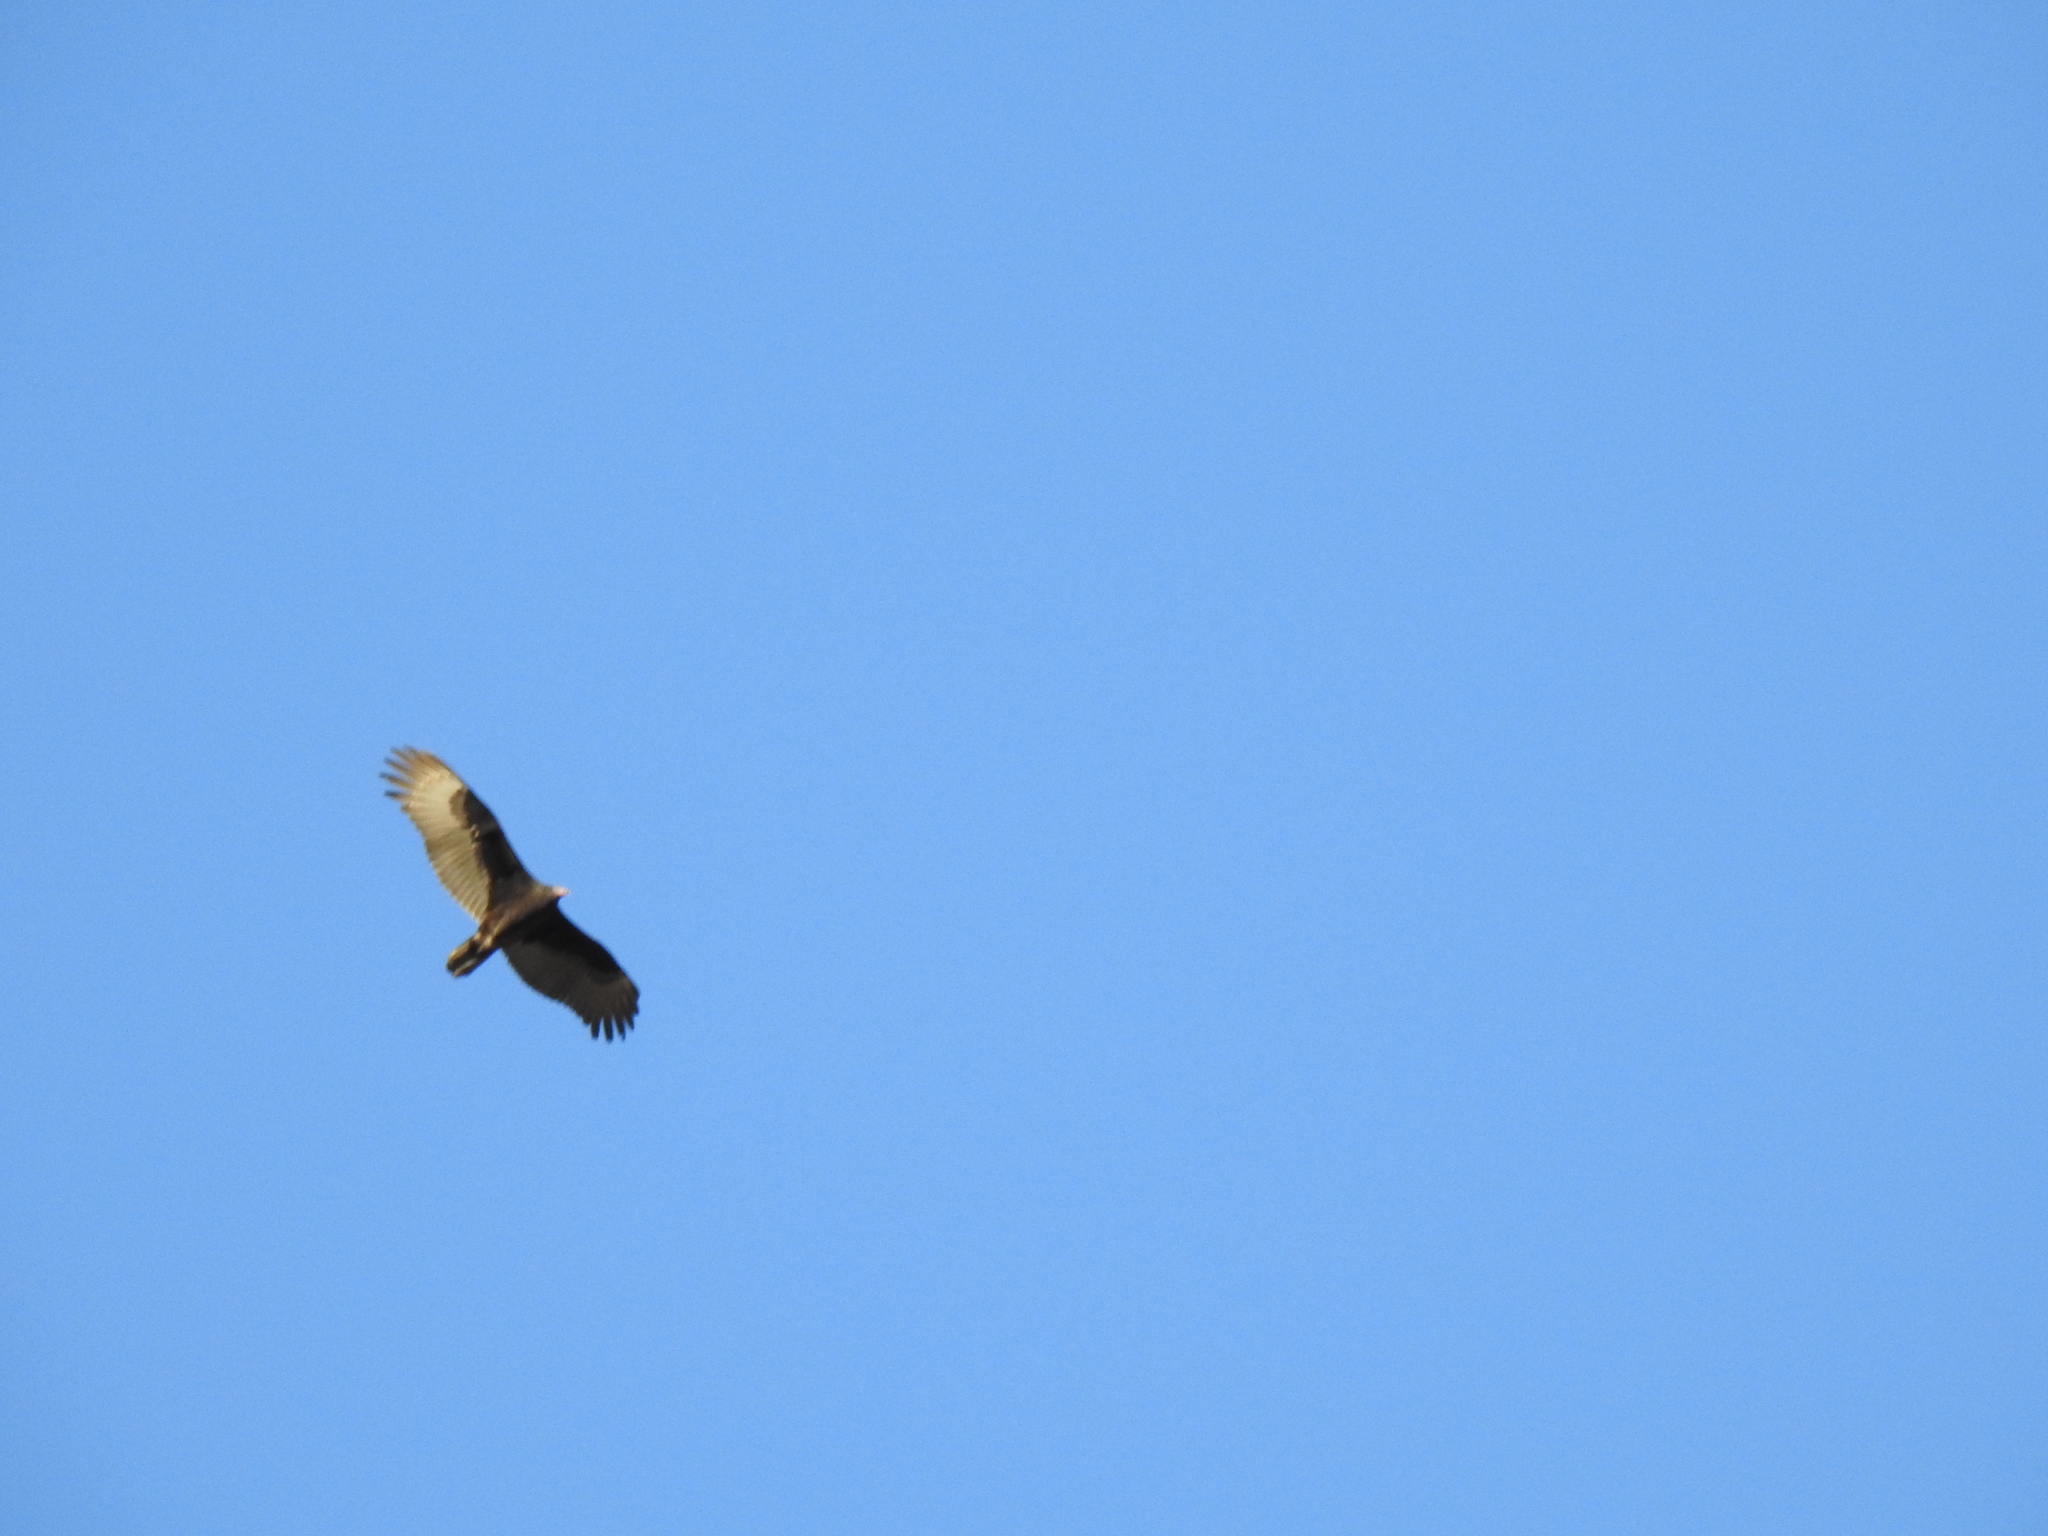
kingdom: Animalia
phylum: Chordata
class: Aves
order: Accipitriformes
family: Cathartidae
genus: Cathartes
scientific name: Cathartes aura
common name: Turkey vulture
